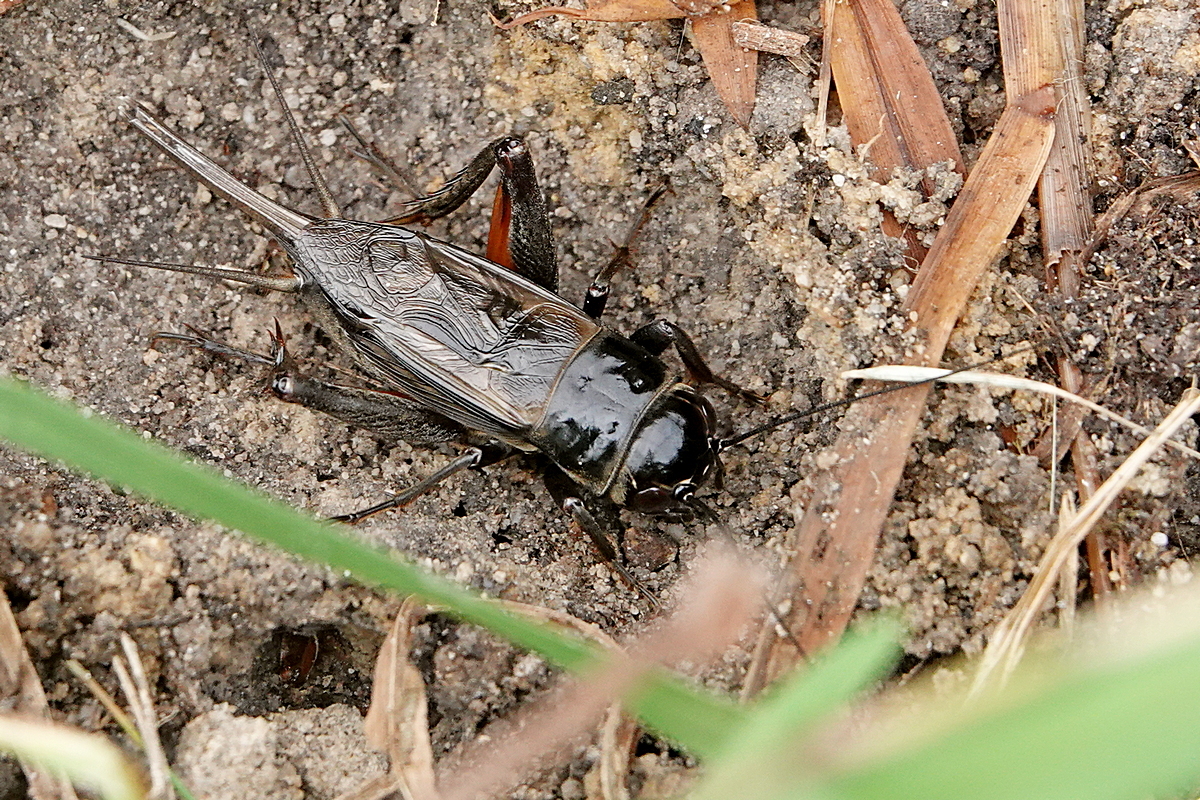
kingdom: Animalia
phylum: Arthropoda
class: Insecta
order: Orthoptera
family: Gryllidae
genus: Teleogryllus
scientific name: Teleogryllus commodus
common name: Black field cricket
